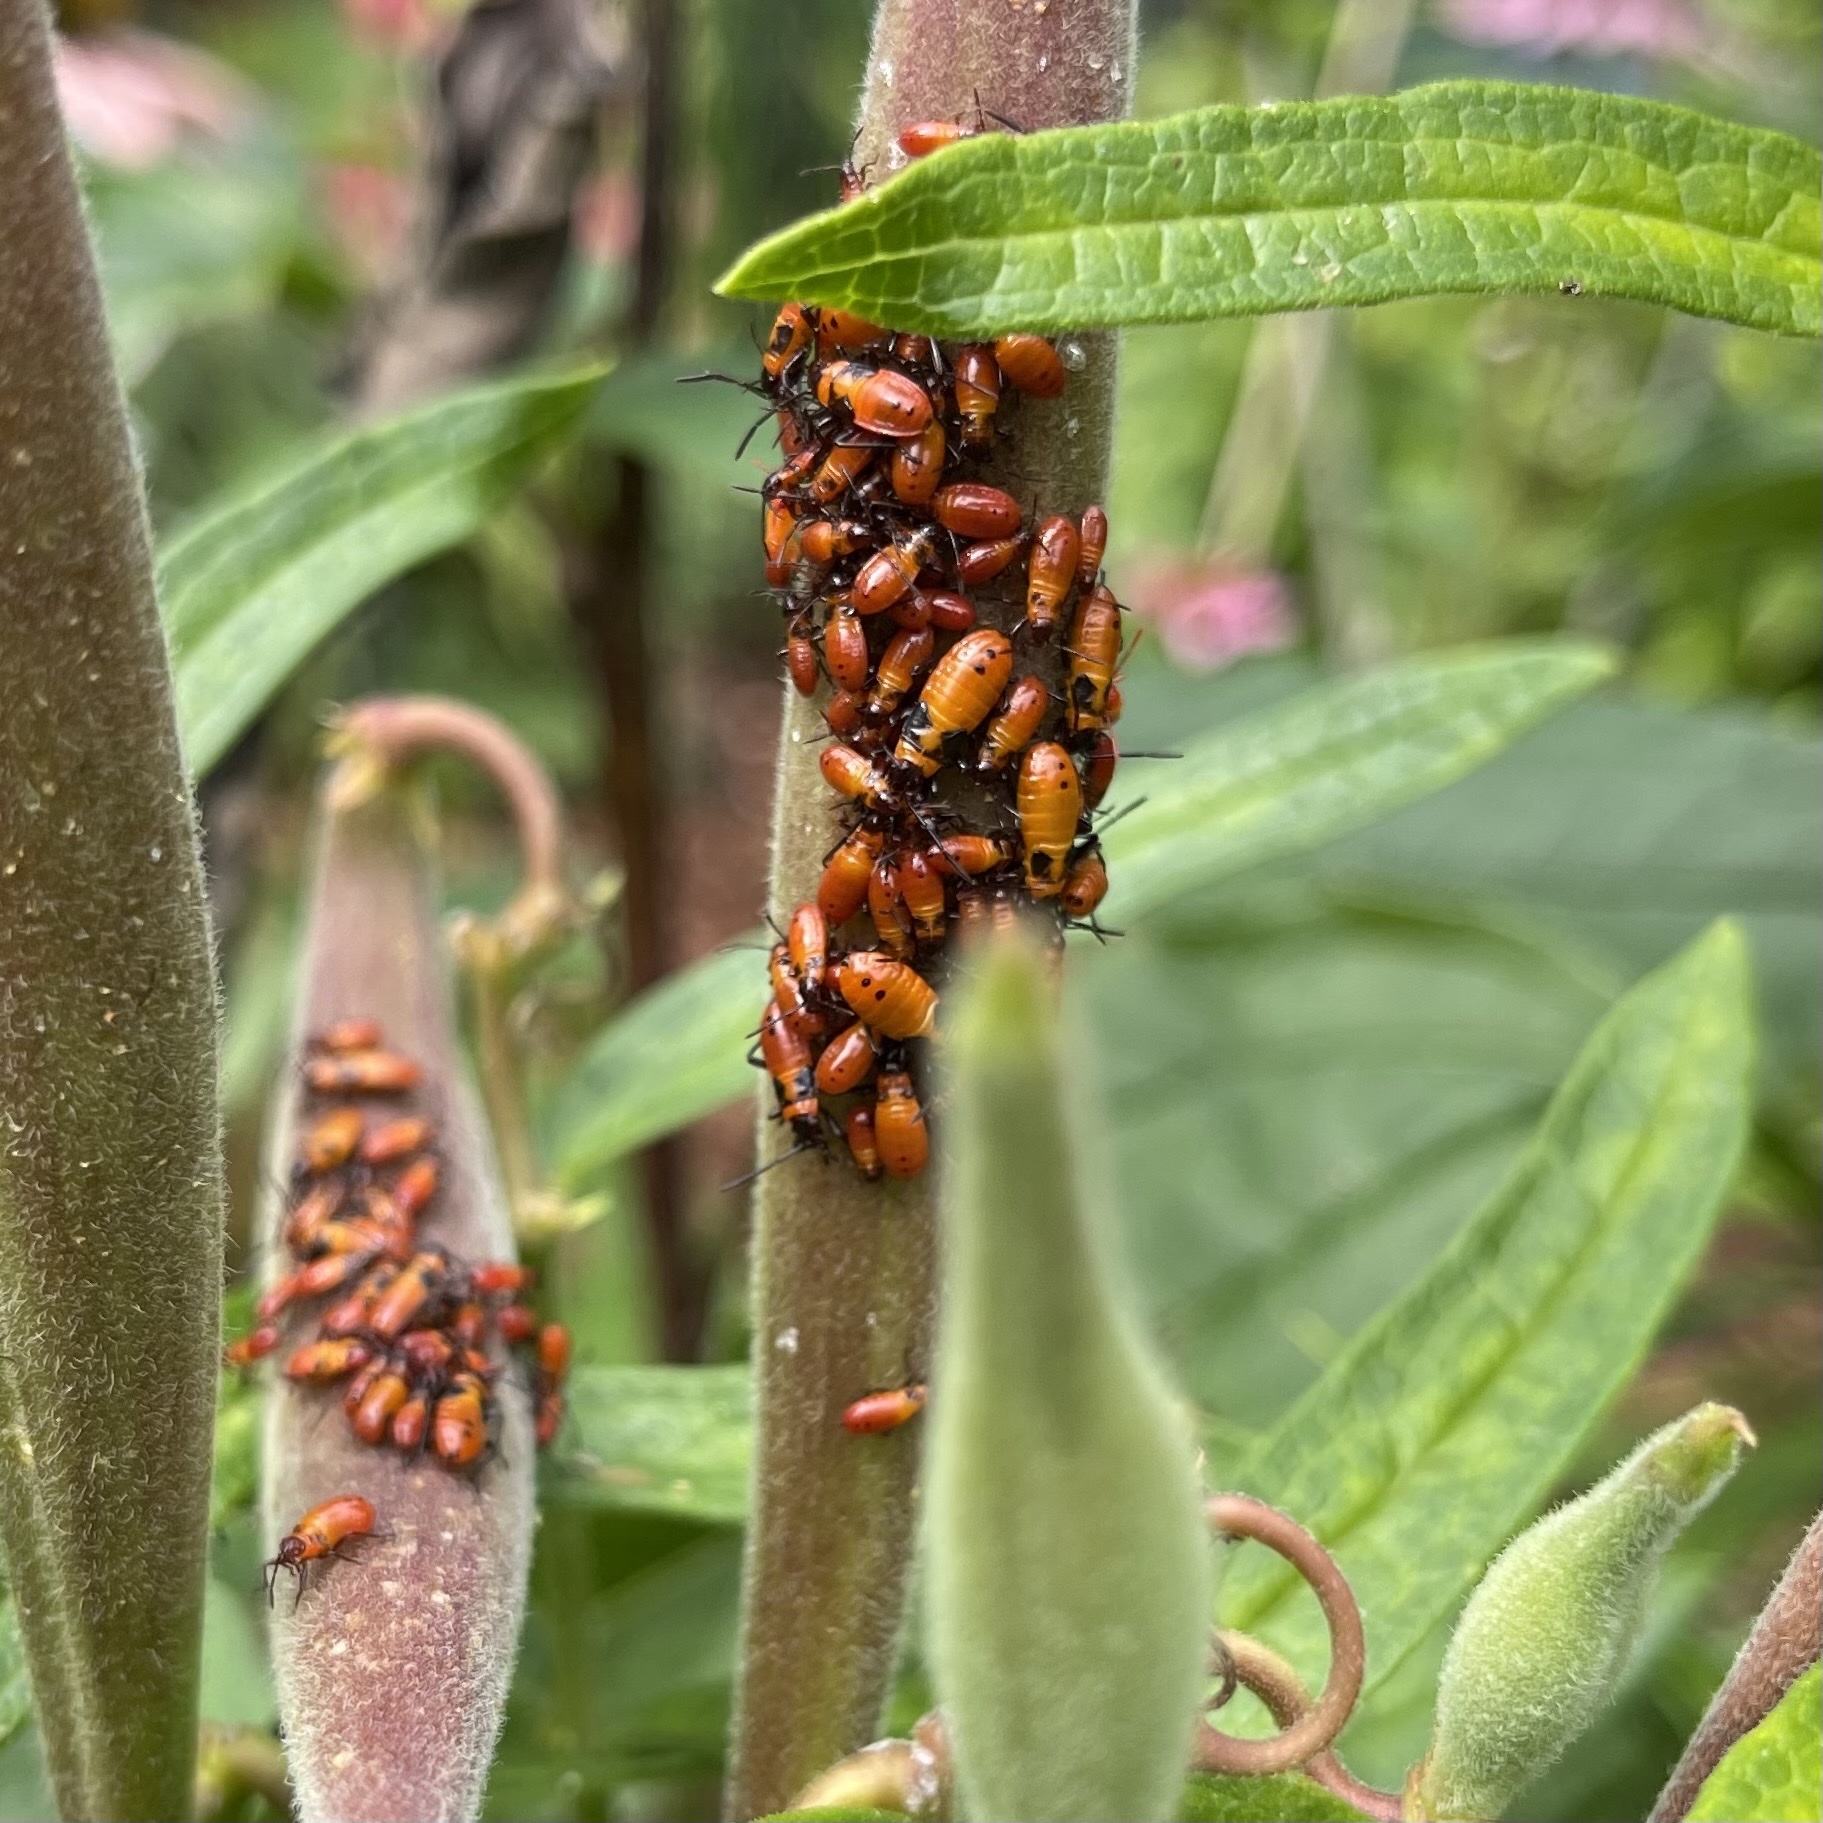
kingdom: Animalia
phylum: Arthropoda
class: Insecta
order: Hemiptera
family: Lygaeidae
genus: Oncopeltus
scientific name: Oncopeltus fasciatus
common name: Large milkweed bug
